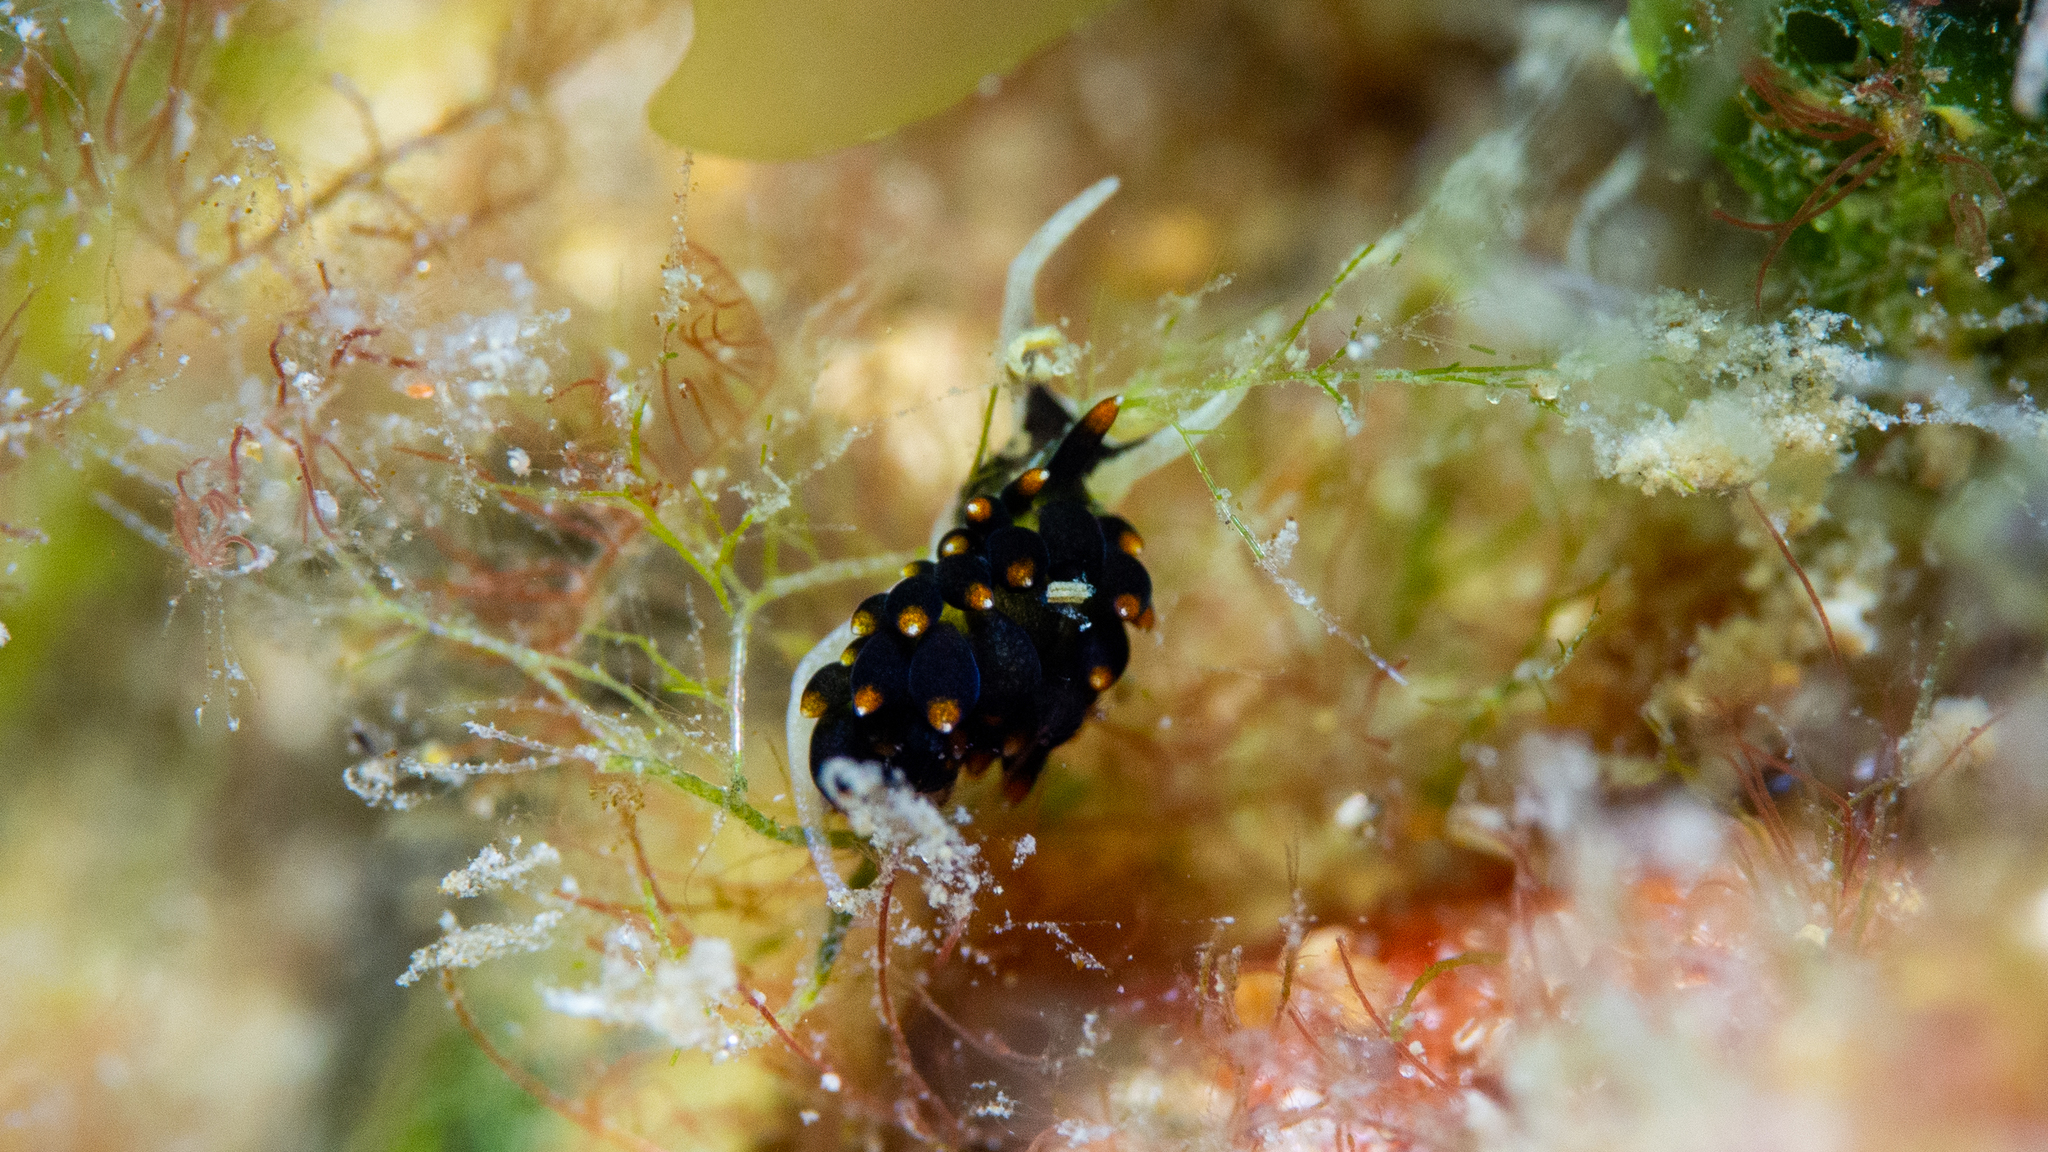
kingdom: Animalia
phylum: Mollusca
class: Gastropoda
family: Limapontiidae
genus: Ercolania
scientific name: Ercolania boodleae
